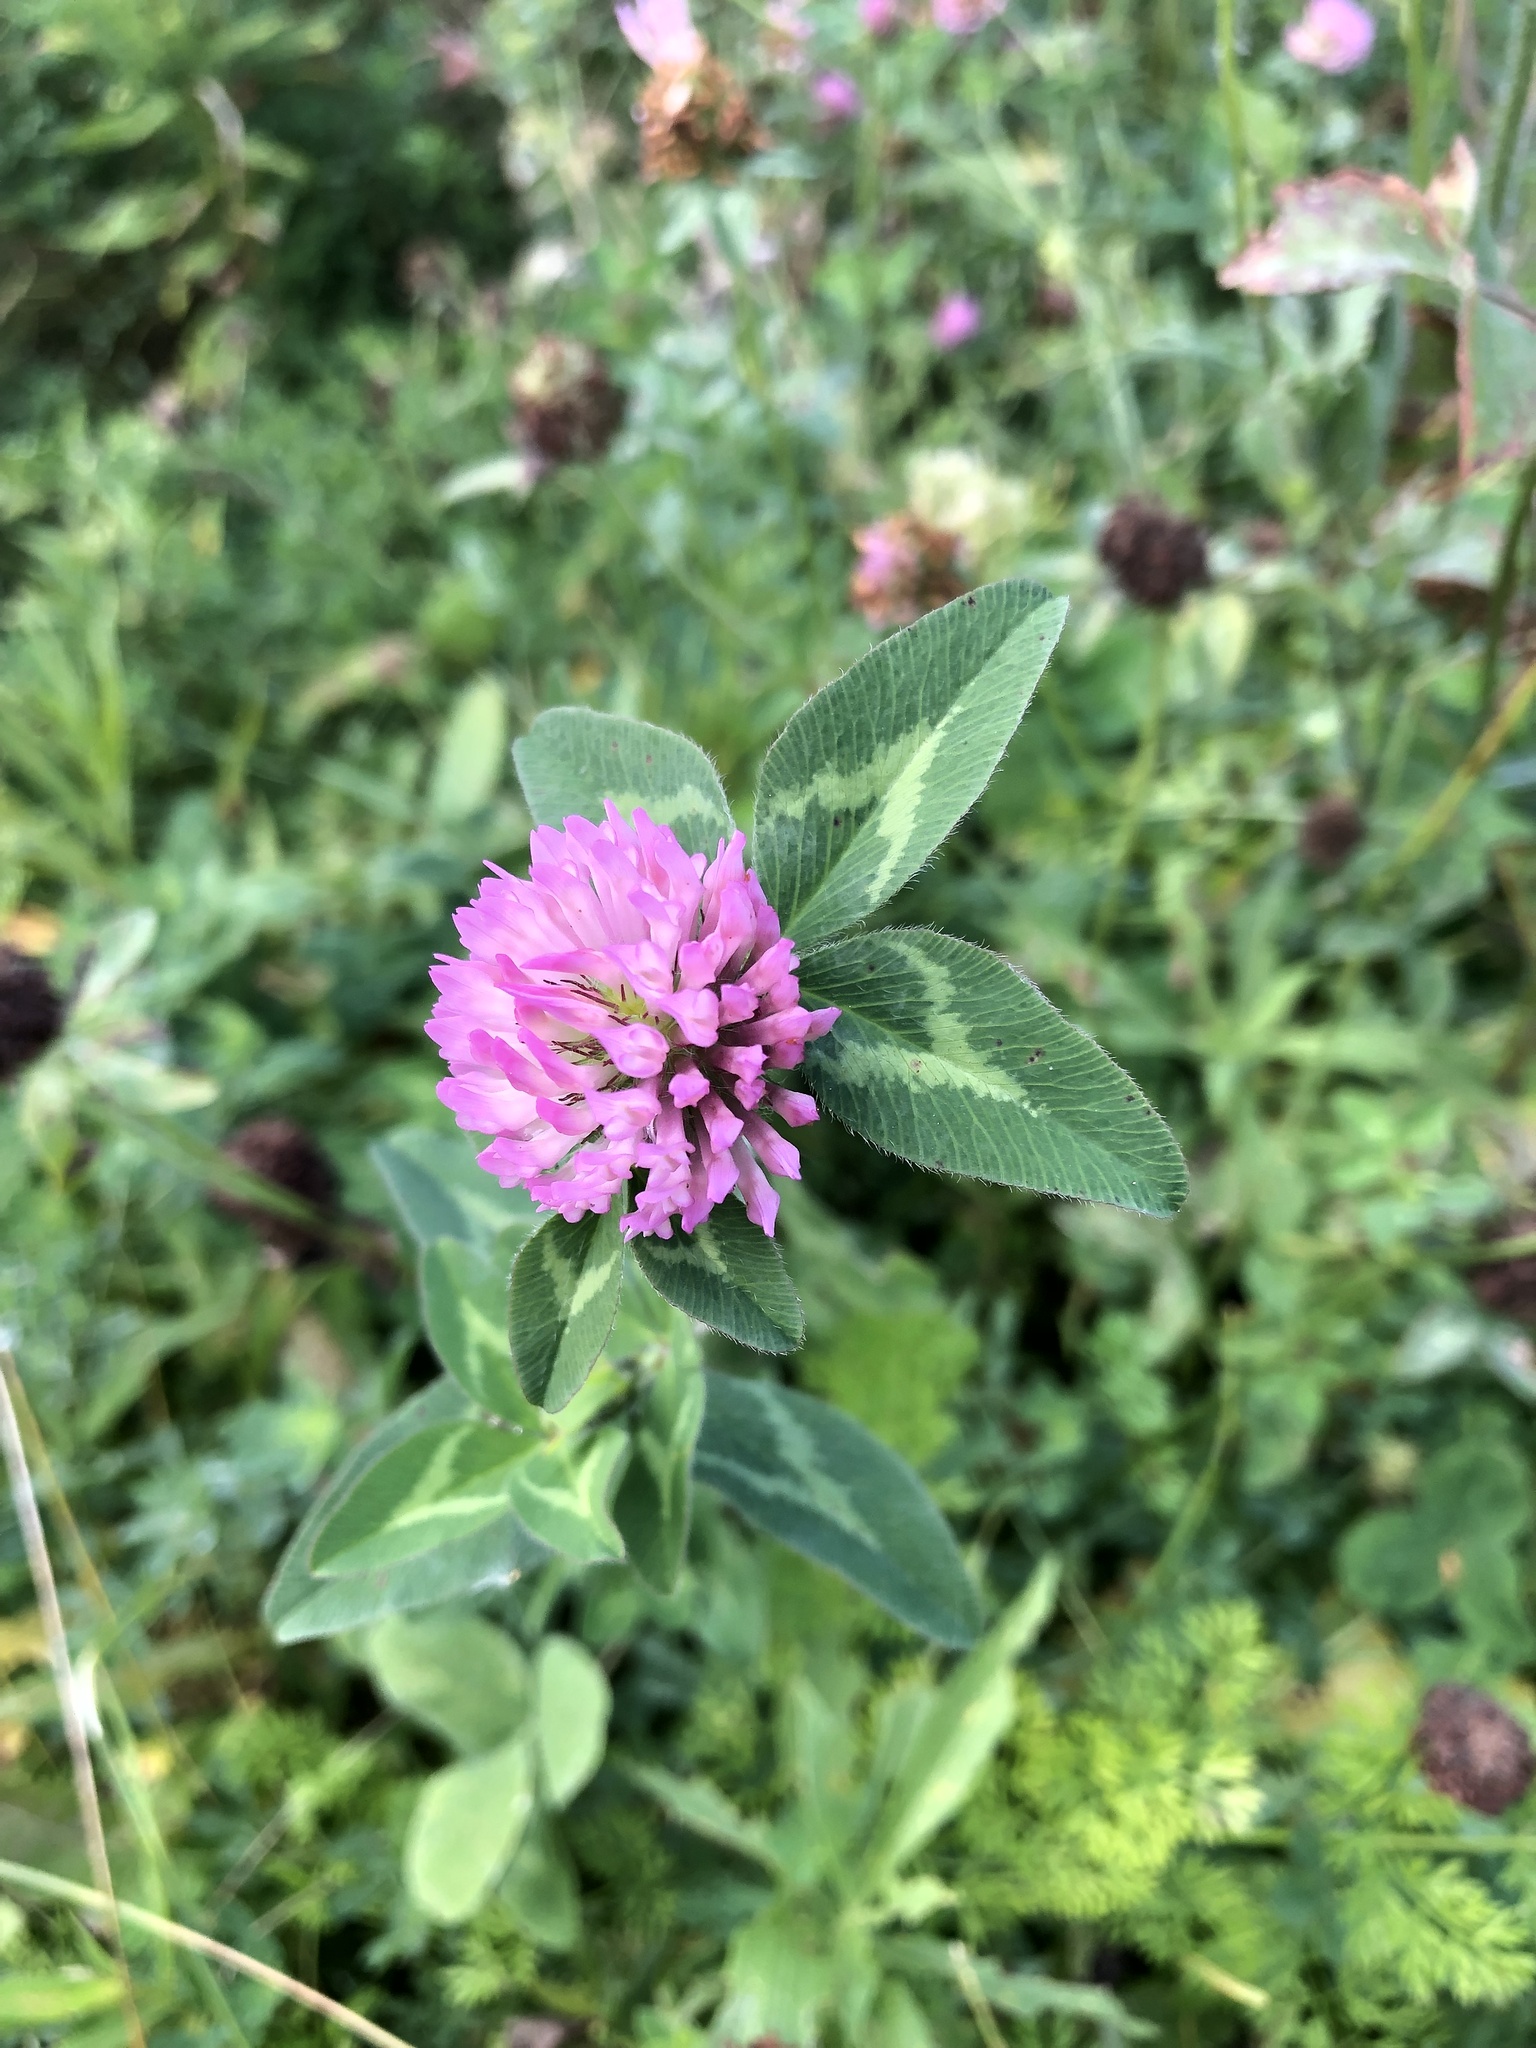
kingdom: Plantae
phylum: Tracheophyta
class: Magnoliopsida
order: Fabales
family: Fabaceae
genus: Trifolium
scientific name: Trifolium pratense
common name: Red clover
